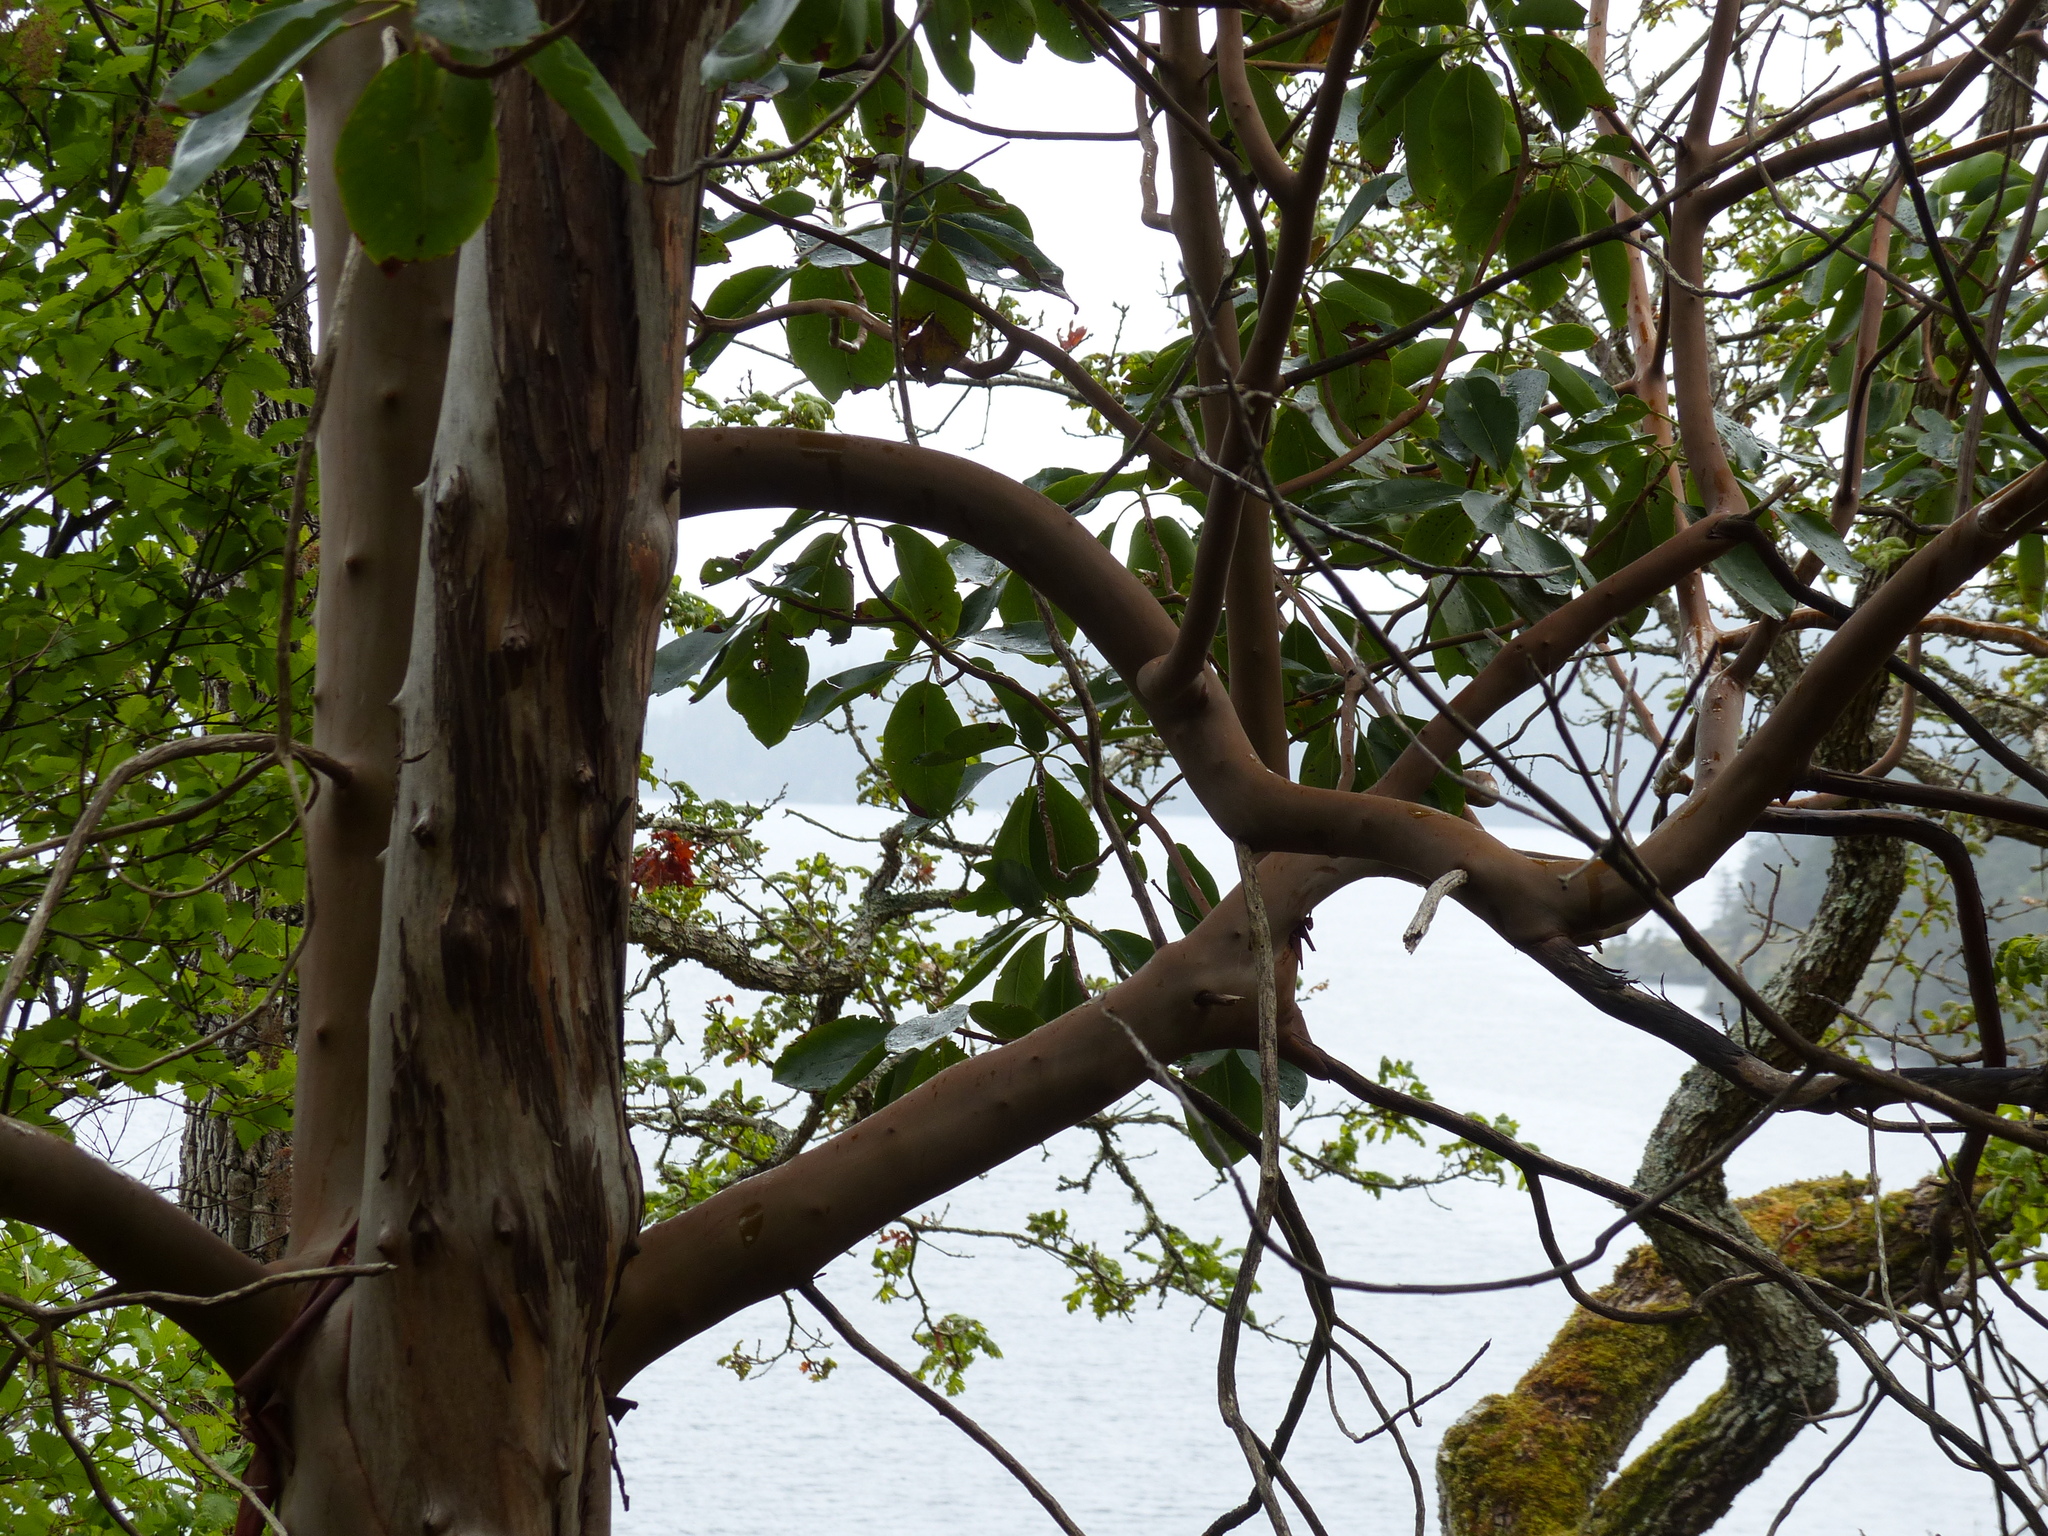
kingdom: Plantae
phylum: Tracheophyta
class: Magnoliopsida
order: Ericales
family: Ericaceae
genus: Arbutus
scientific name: Arbutus menziesii
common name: Pacific madrone
